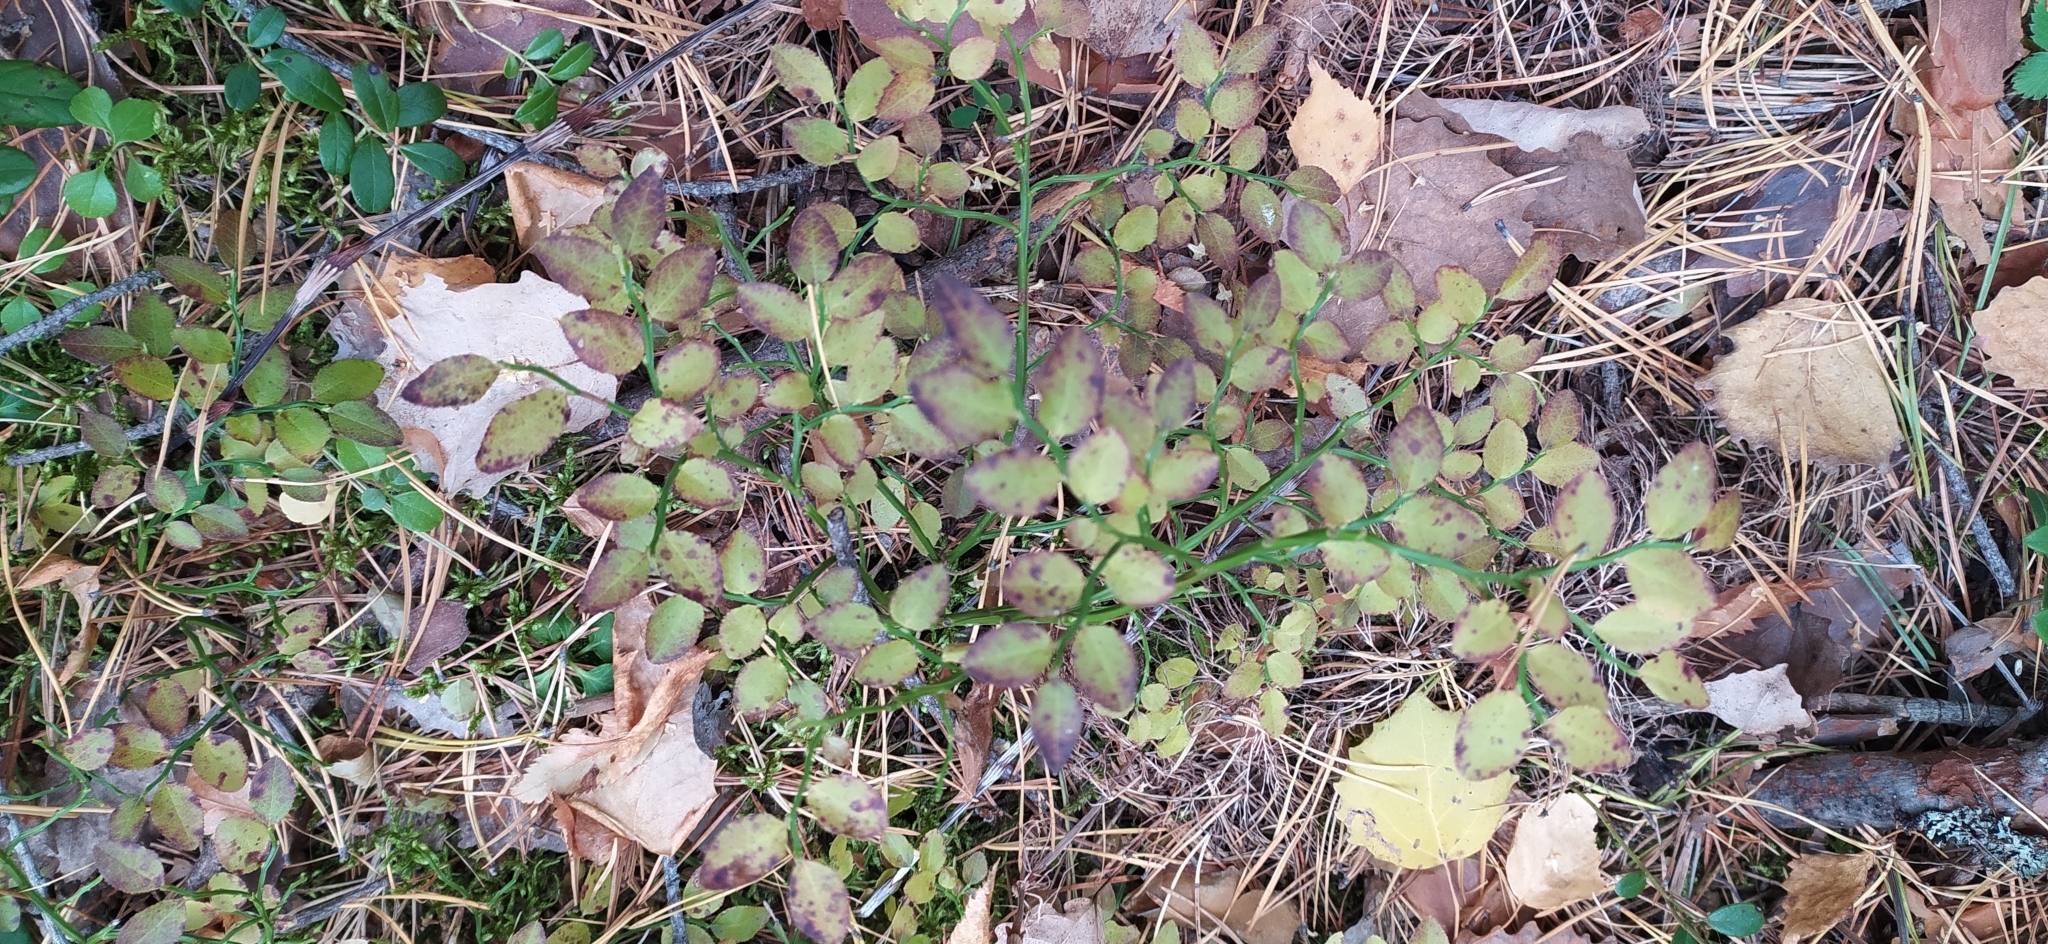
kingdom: Plantae
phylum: Tracheophyta
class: Magnoliopsida
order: Ericales
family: Ericaceae
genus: Vaccinium
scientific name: Vaccinium myrtillus
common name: Bilberry
